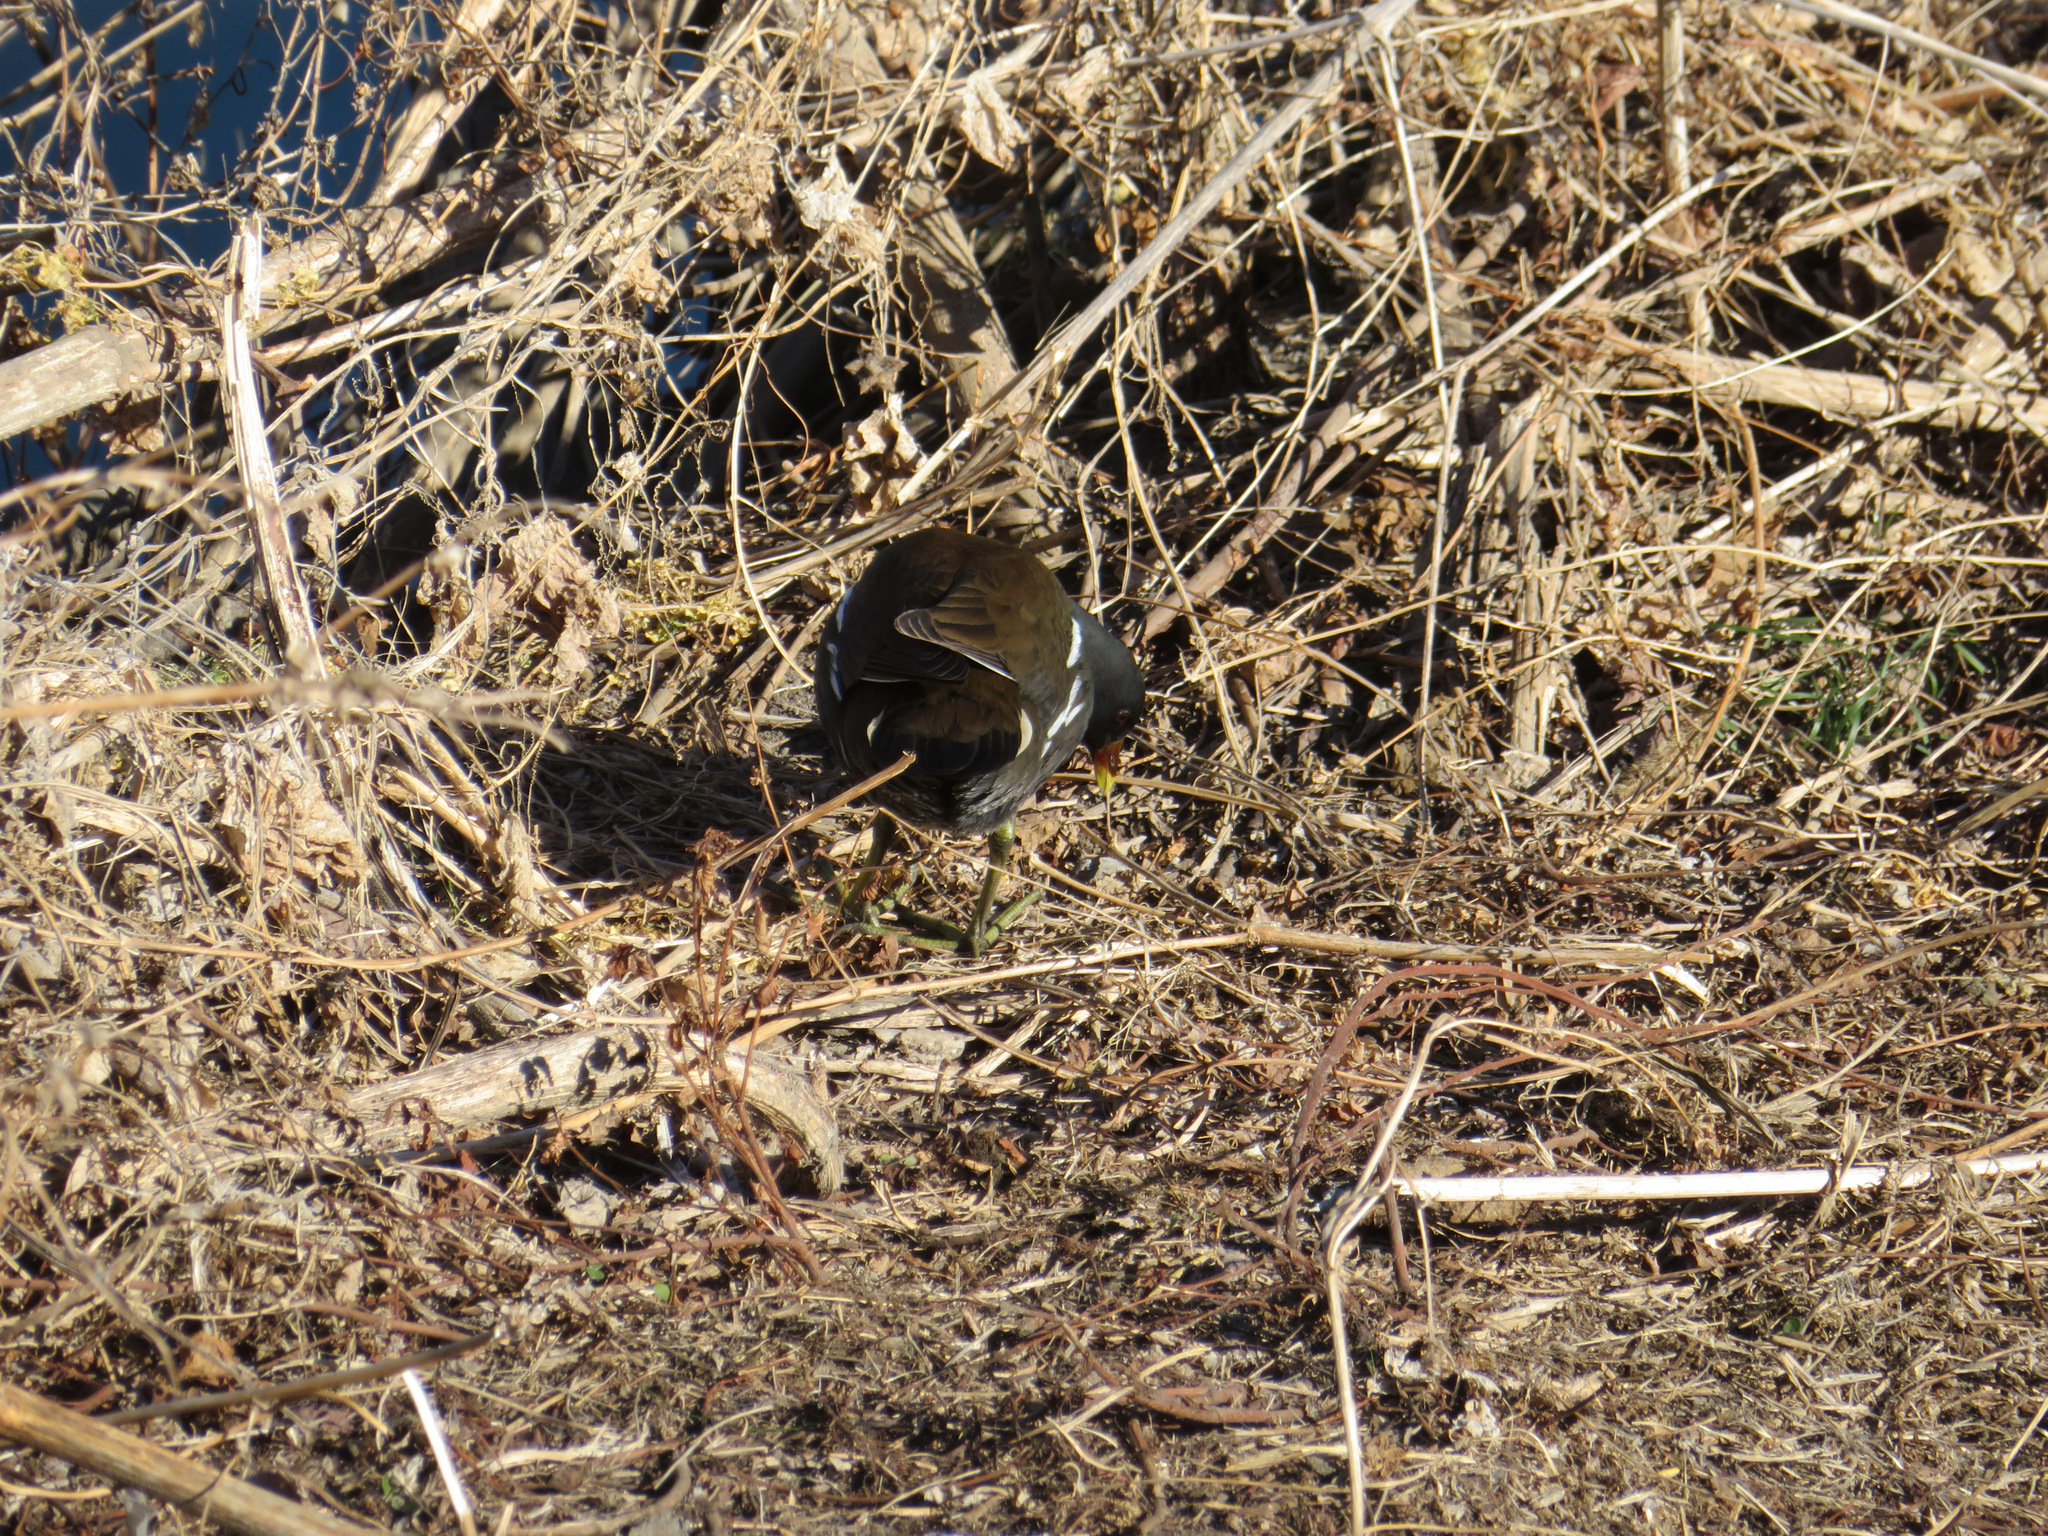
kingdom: Animalia
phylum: Chordata
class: Aves
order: Gruiformes
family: Rallidae
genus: Gallinula
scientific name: Gallinula chloropus
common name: Common moorhen
